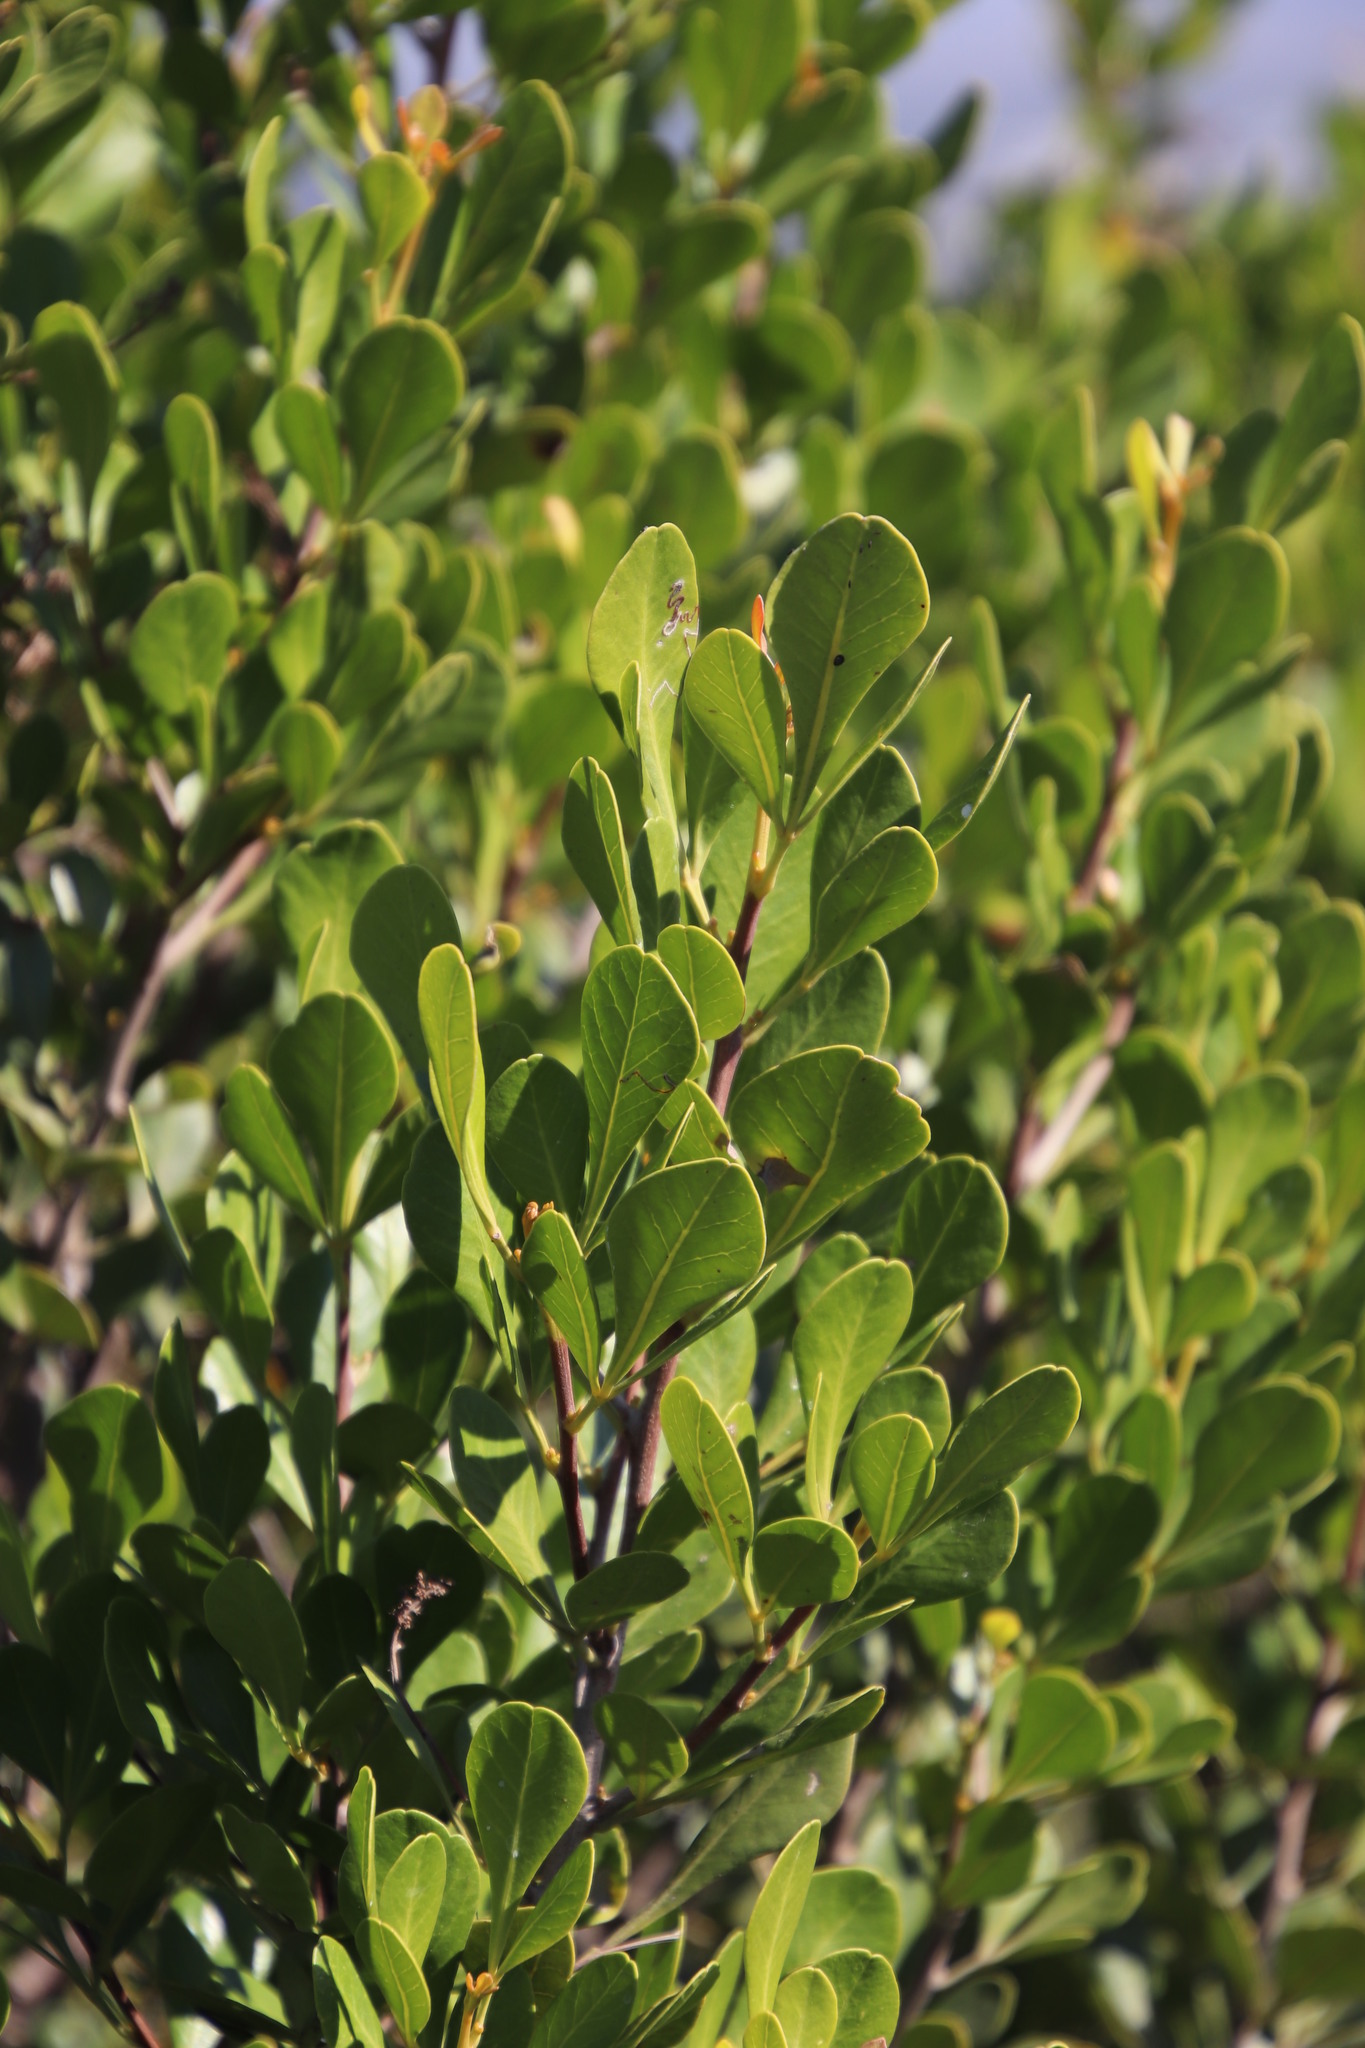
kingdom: Plantae
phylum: Tracheophyta
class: Magnoliopsida
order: Sapindales
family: Anacardiaceae
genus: Searsia
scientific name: Searsia lucida
